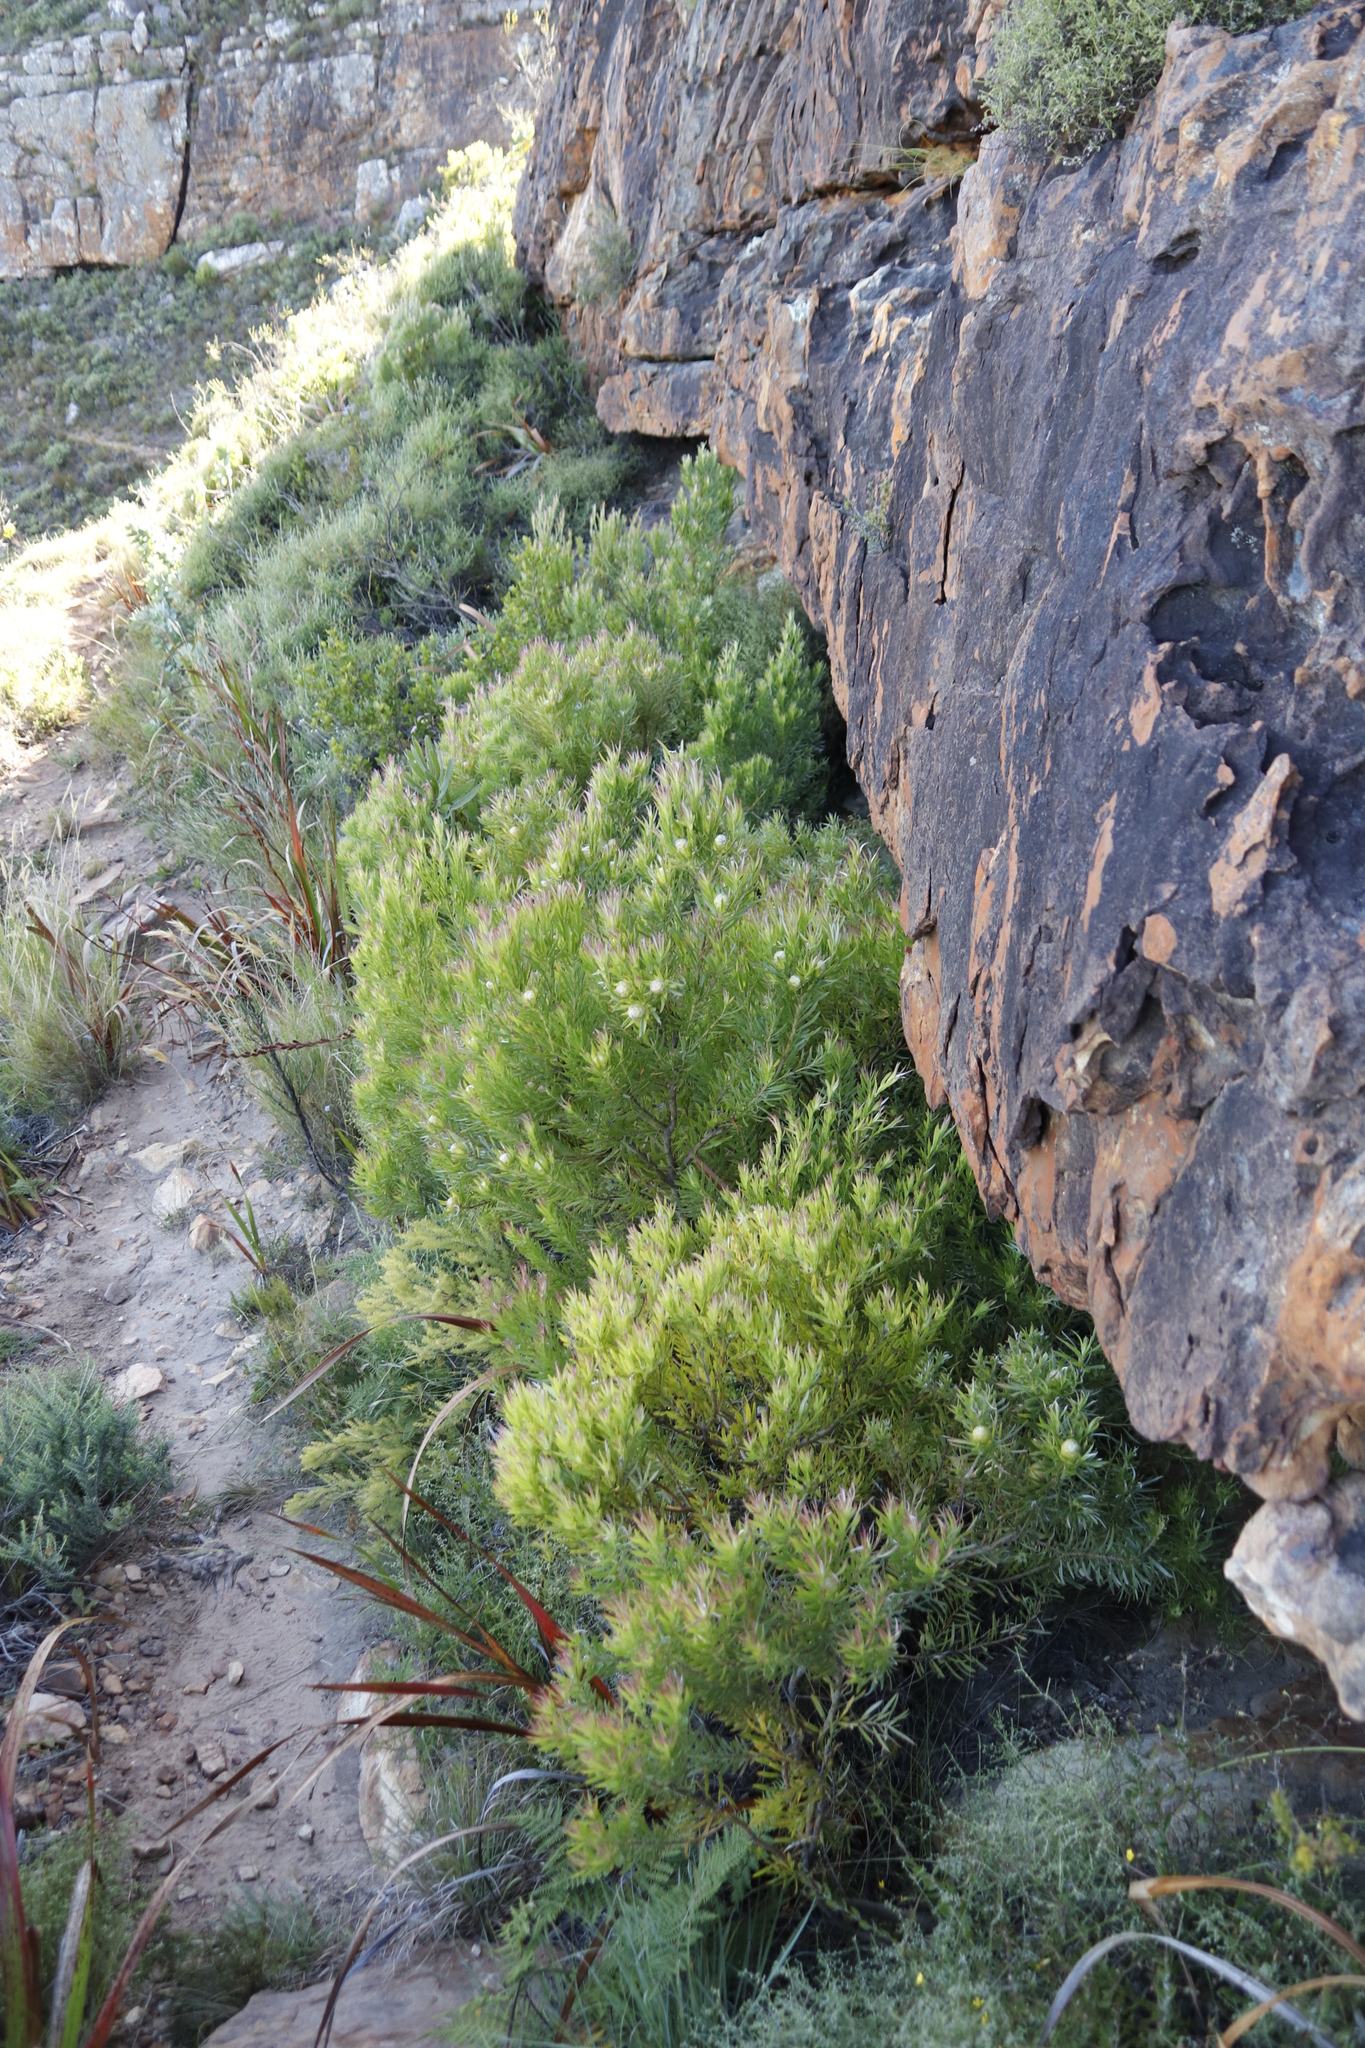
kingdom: Plantae
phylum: Tracheophyta
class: Magnoliopsida
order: Proteales
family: Proteaceae
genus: Leucadendron
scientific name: Leucadendron xanthoconus
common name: Sickle-leaf conebush
